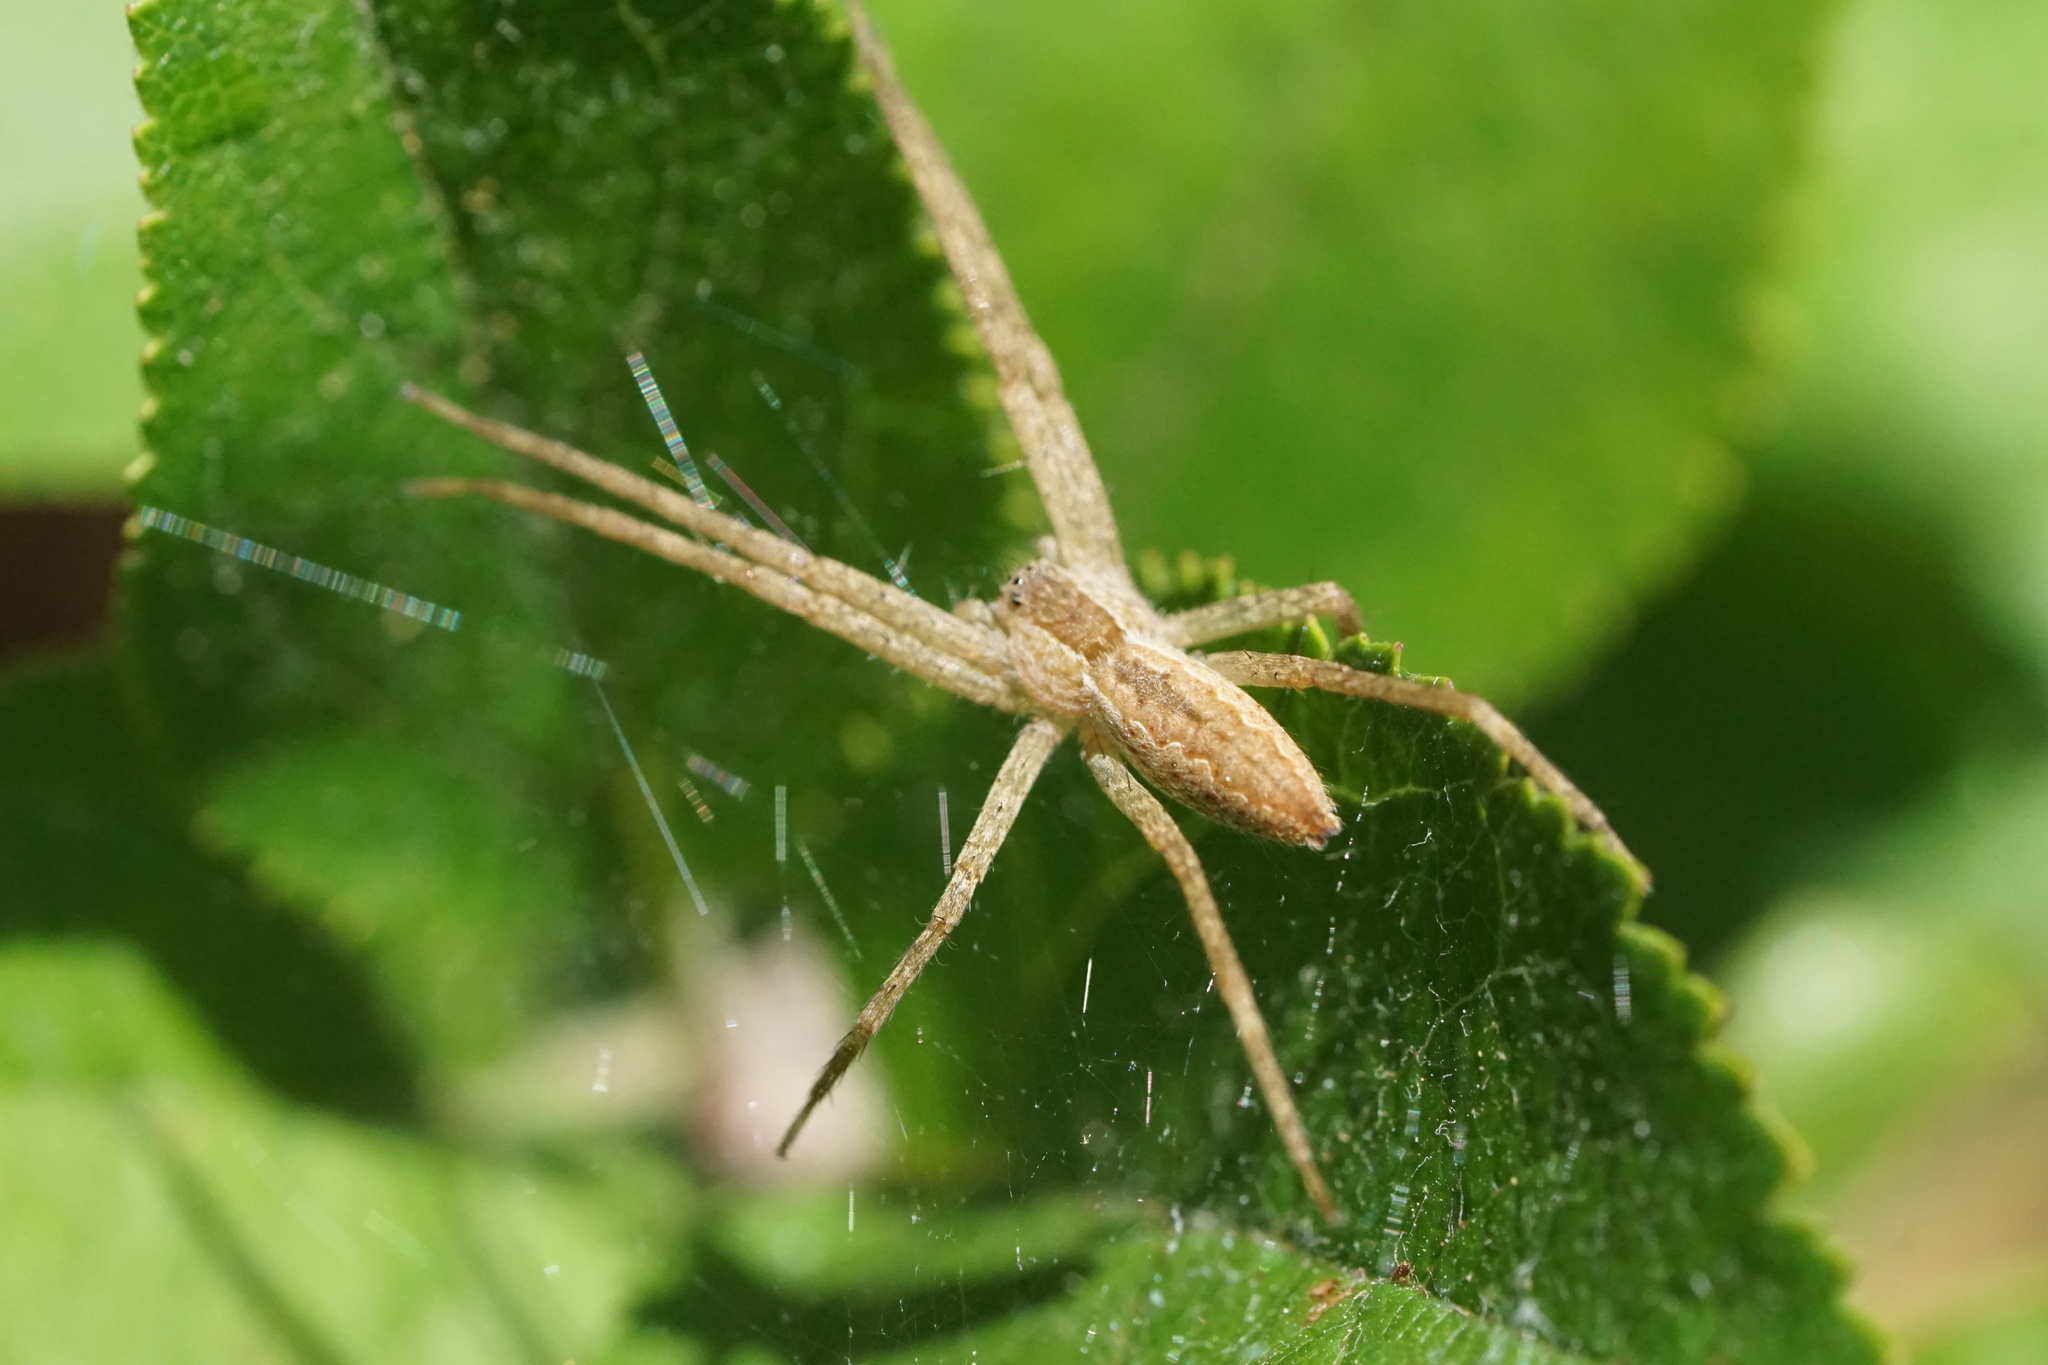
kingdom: Animalia
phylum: Arthropoda
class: Arachnida
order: Araneae
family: Pisauridae
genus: Pisaurina
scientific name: Pisaurina mira
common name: American nursery web spider
